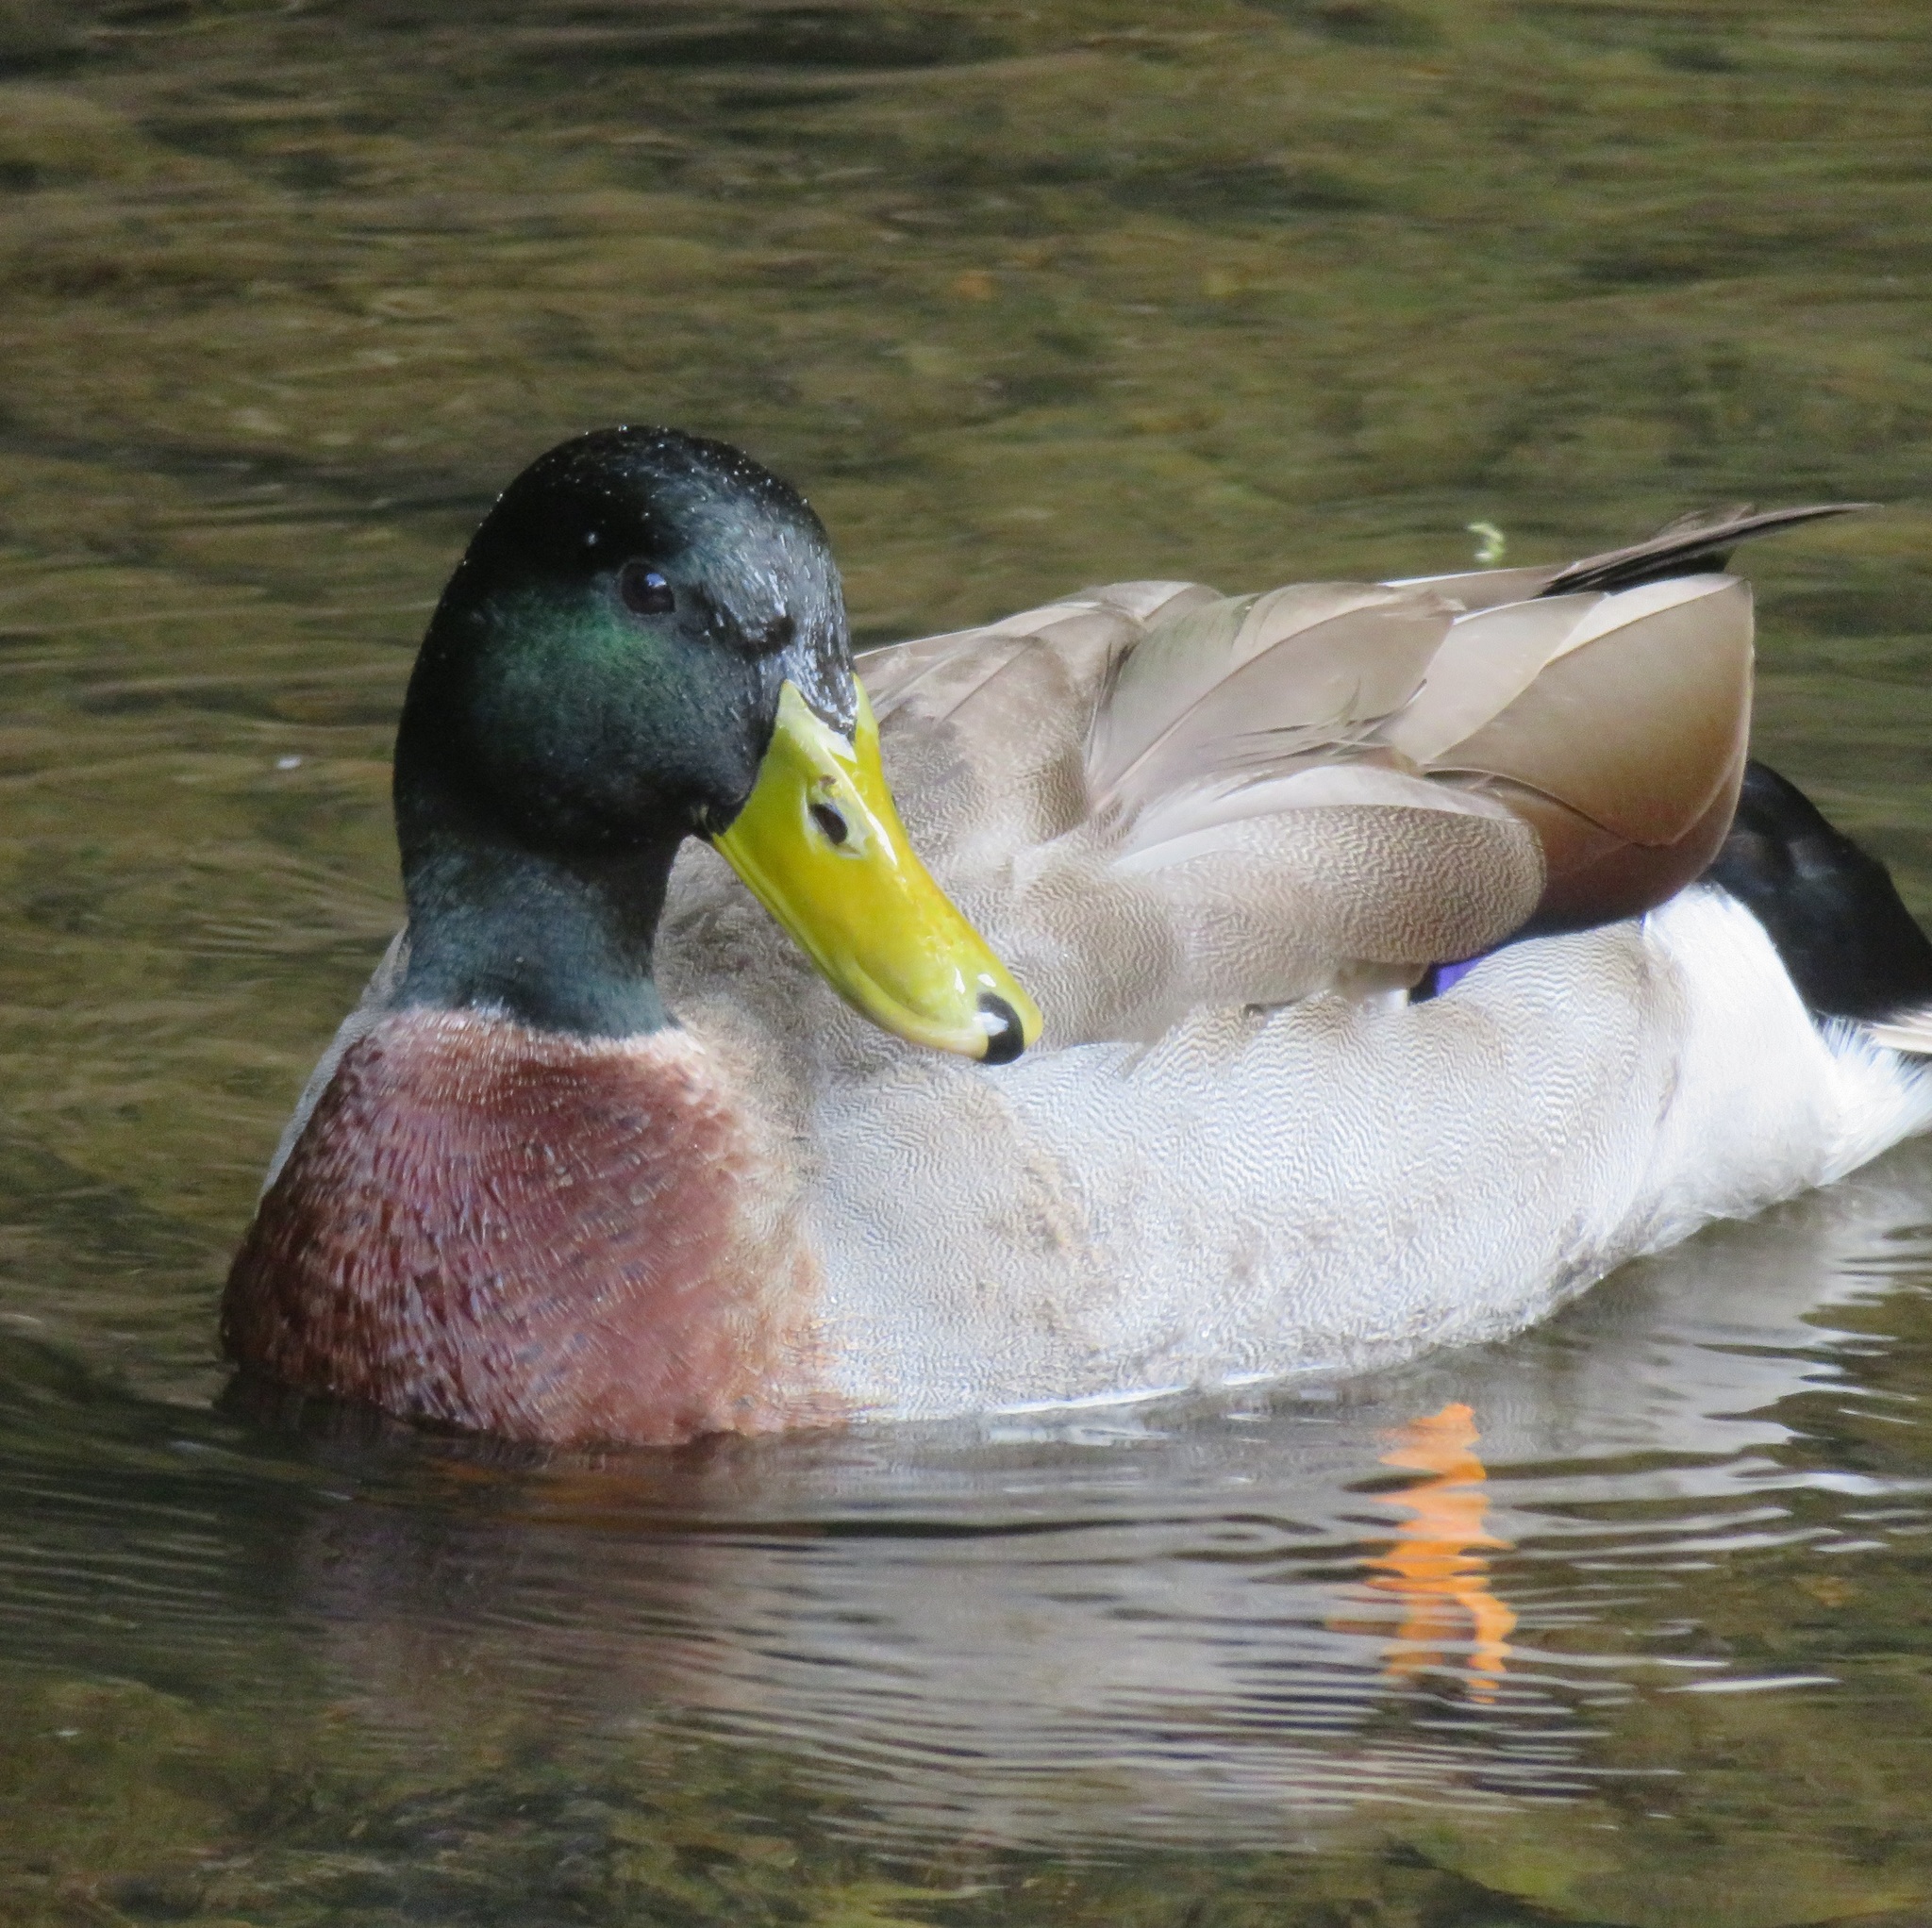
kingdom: Animalia
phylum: Chordata
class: Aves
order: Anseriformes
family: Anatidae
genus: Anas
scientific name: Anas platyrhynchos
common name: Mallard
